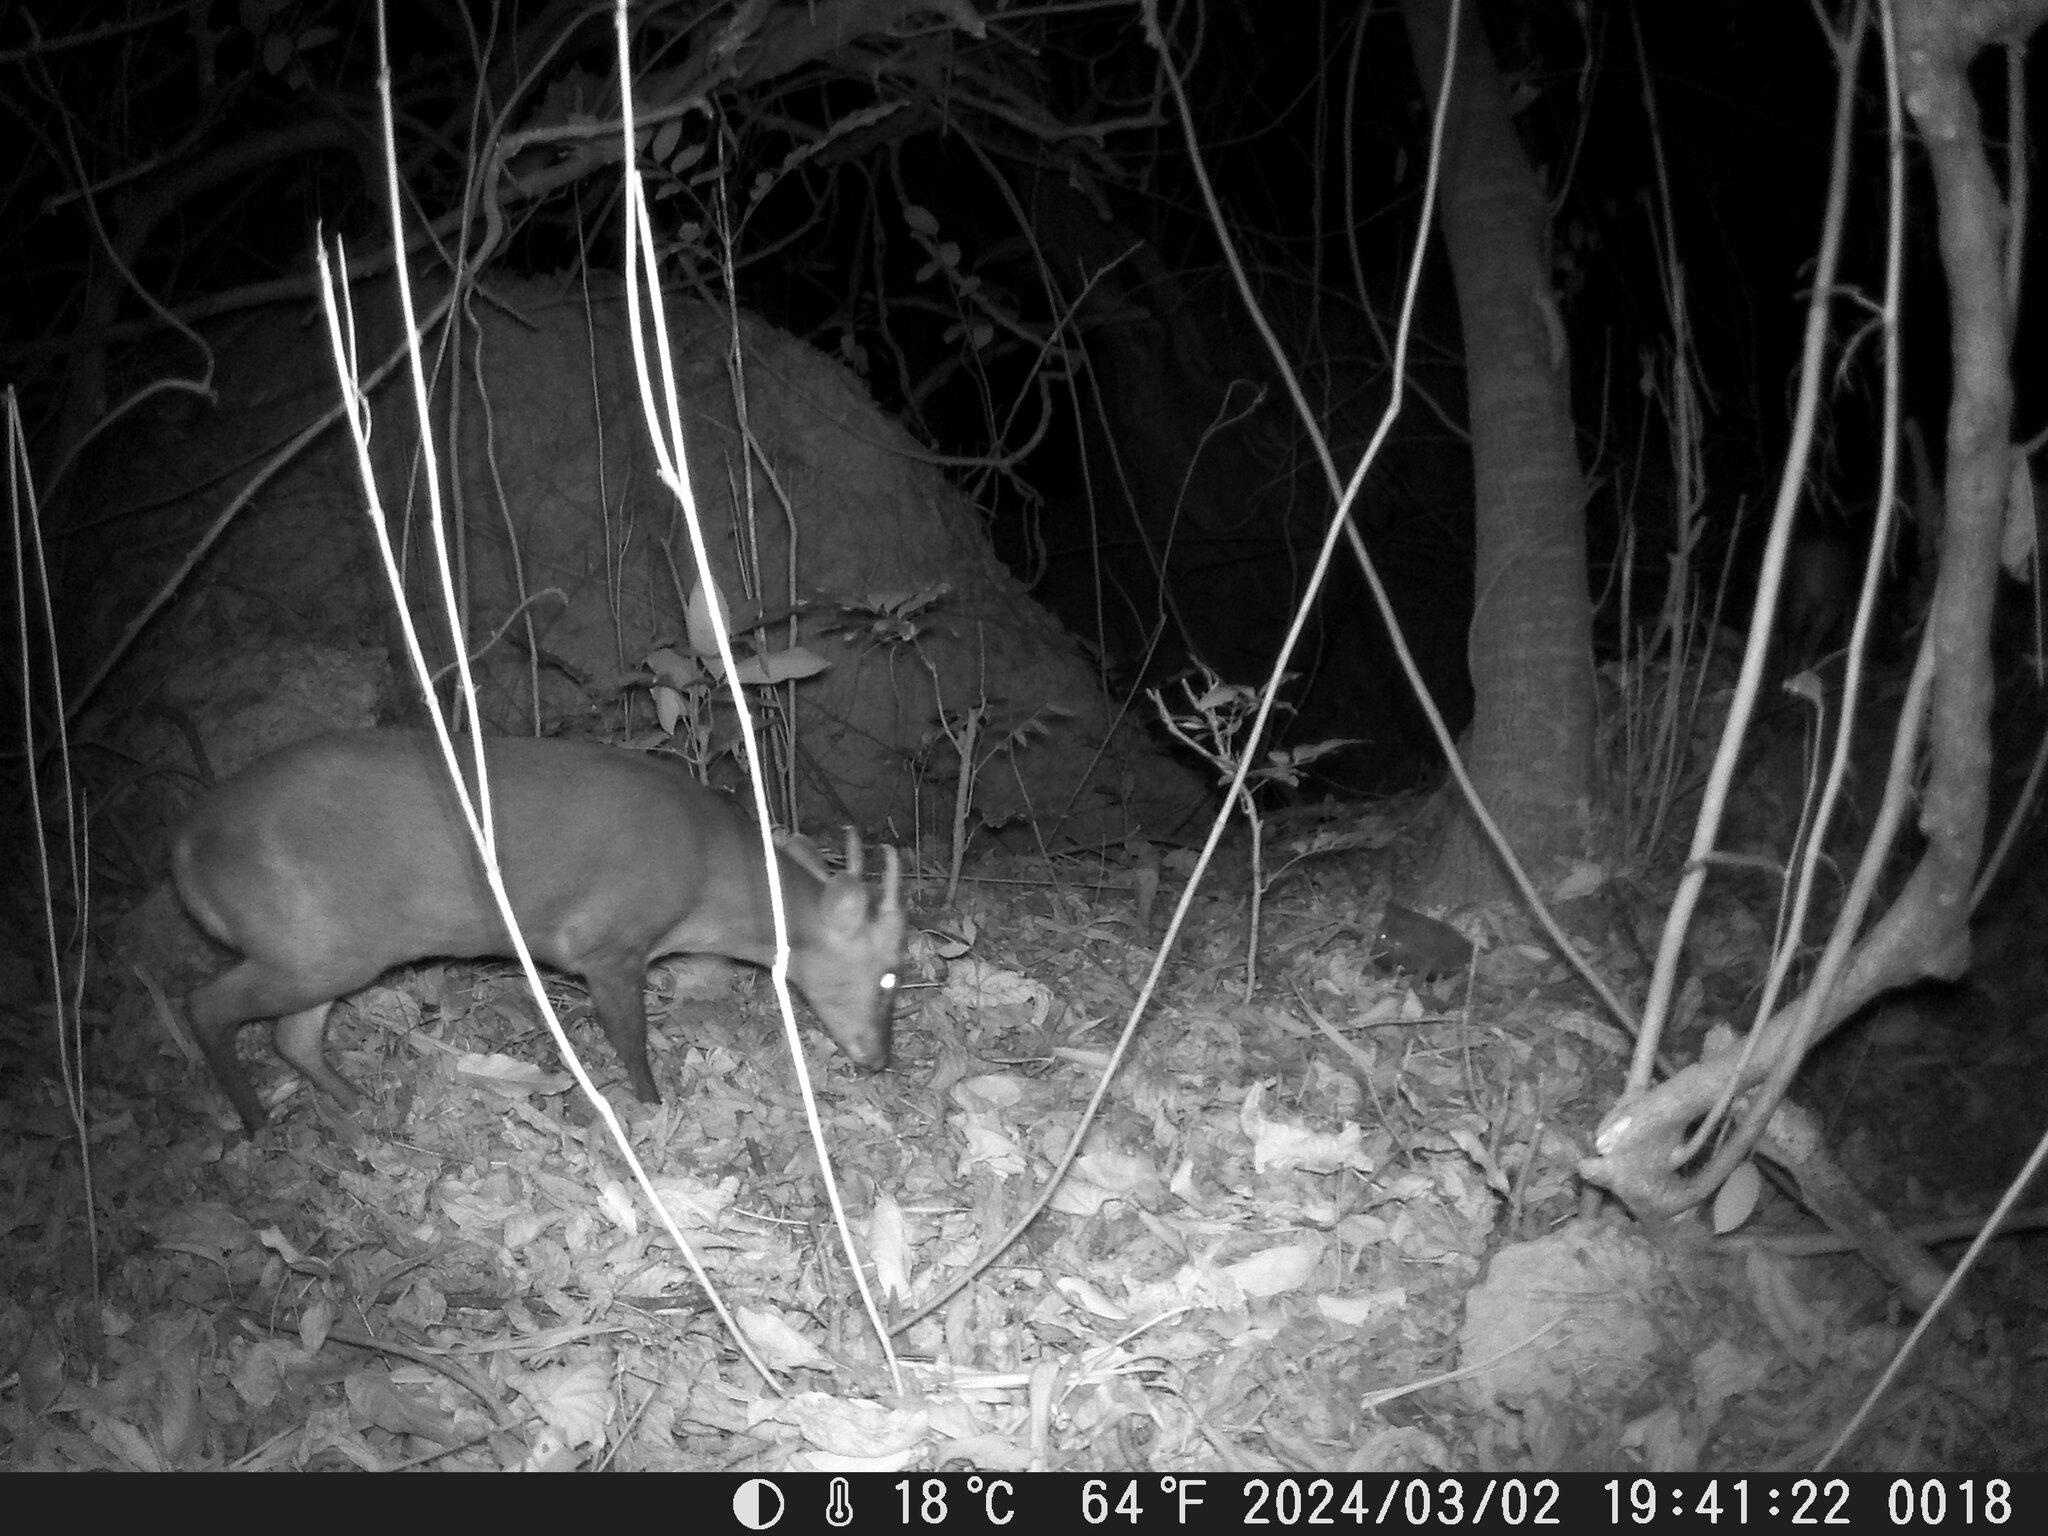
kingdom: Animalia
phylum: Chordata
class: Mammalia
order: Artiodactyla
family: Cervidae
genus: Muntiacus
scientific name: Muntiacus reevesi
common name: Reeves' muntjac
